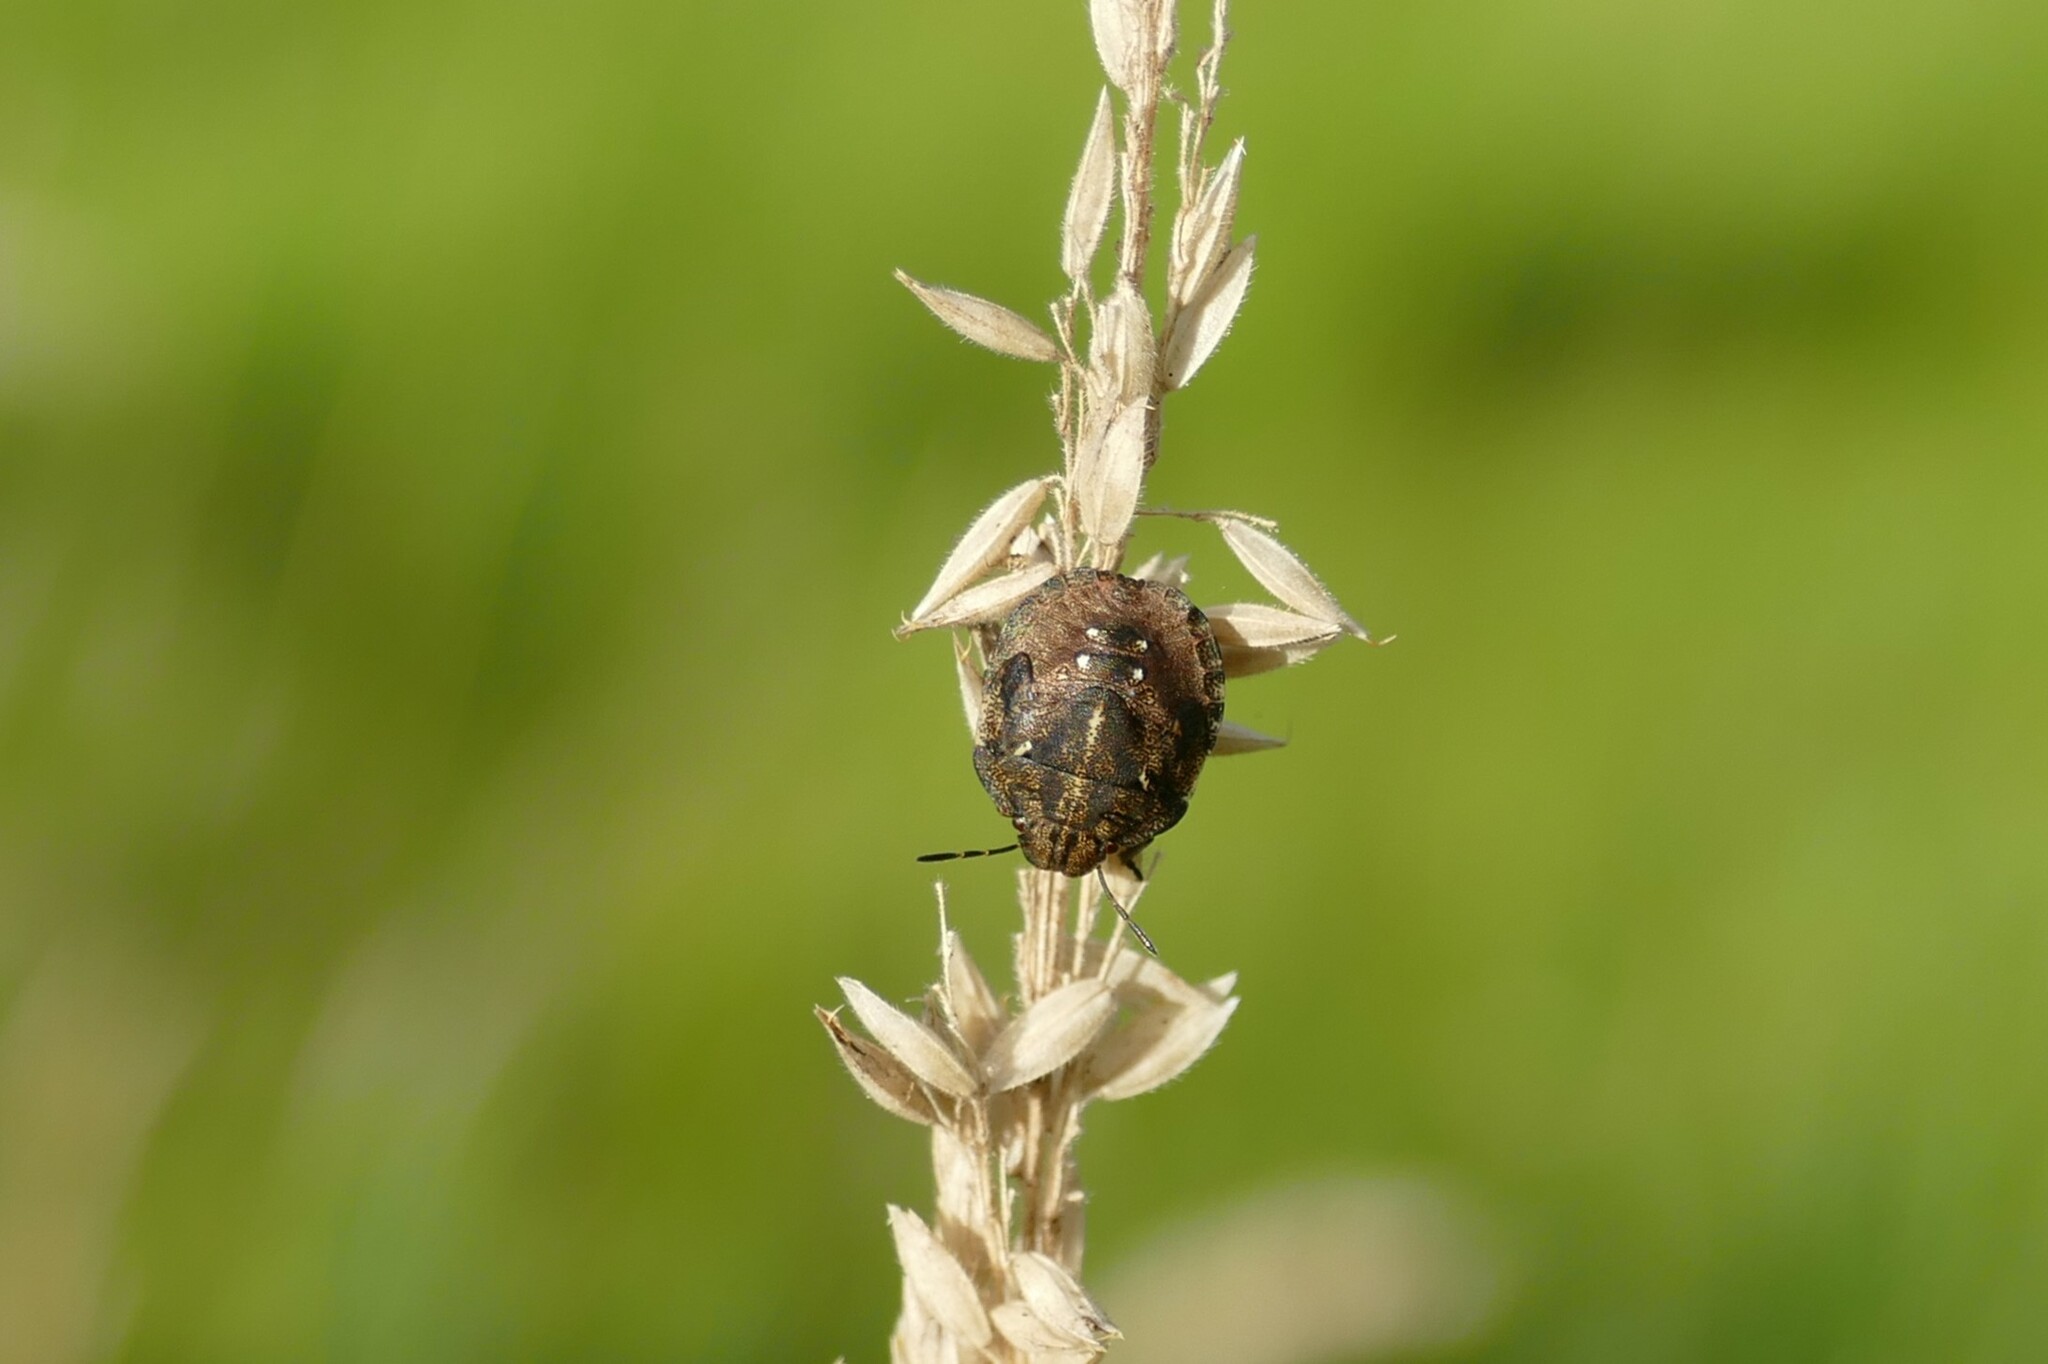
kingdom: Animalia
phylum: Arthropoda
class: Insecta
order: Hemiptera
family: Scutelleridae
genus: Eurygaster
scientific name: Eurygaster testudinaria
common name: Tortoise bug
